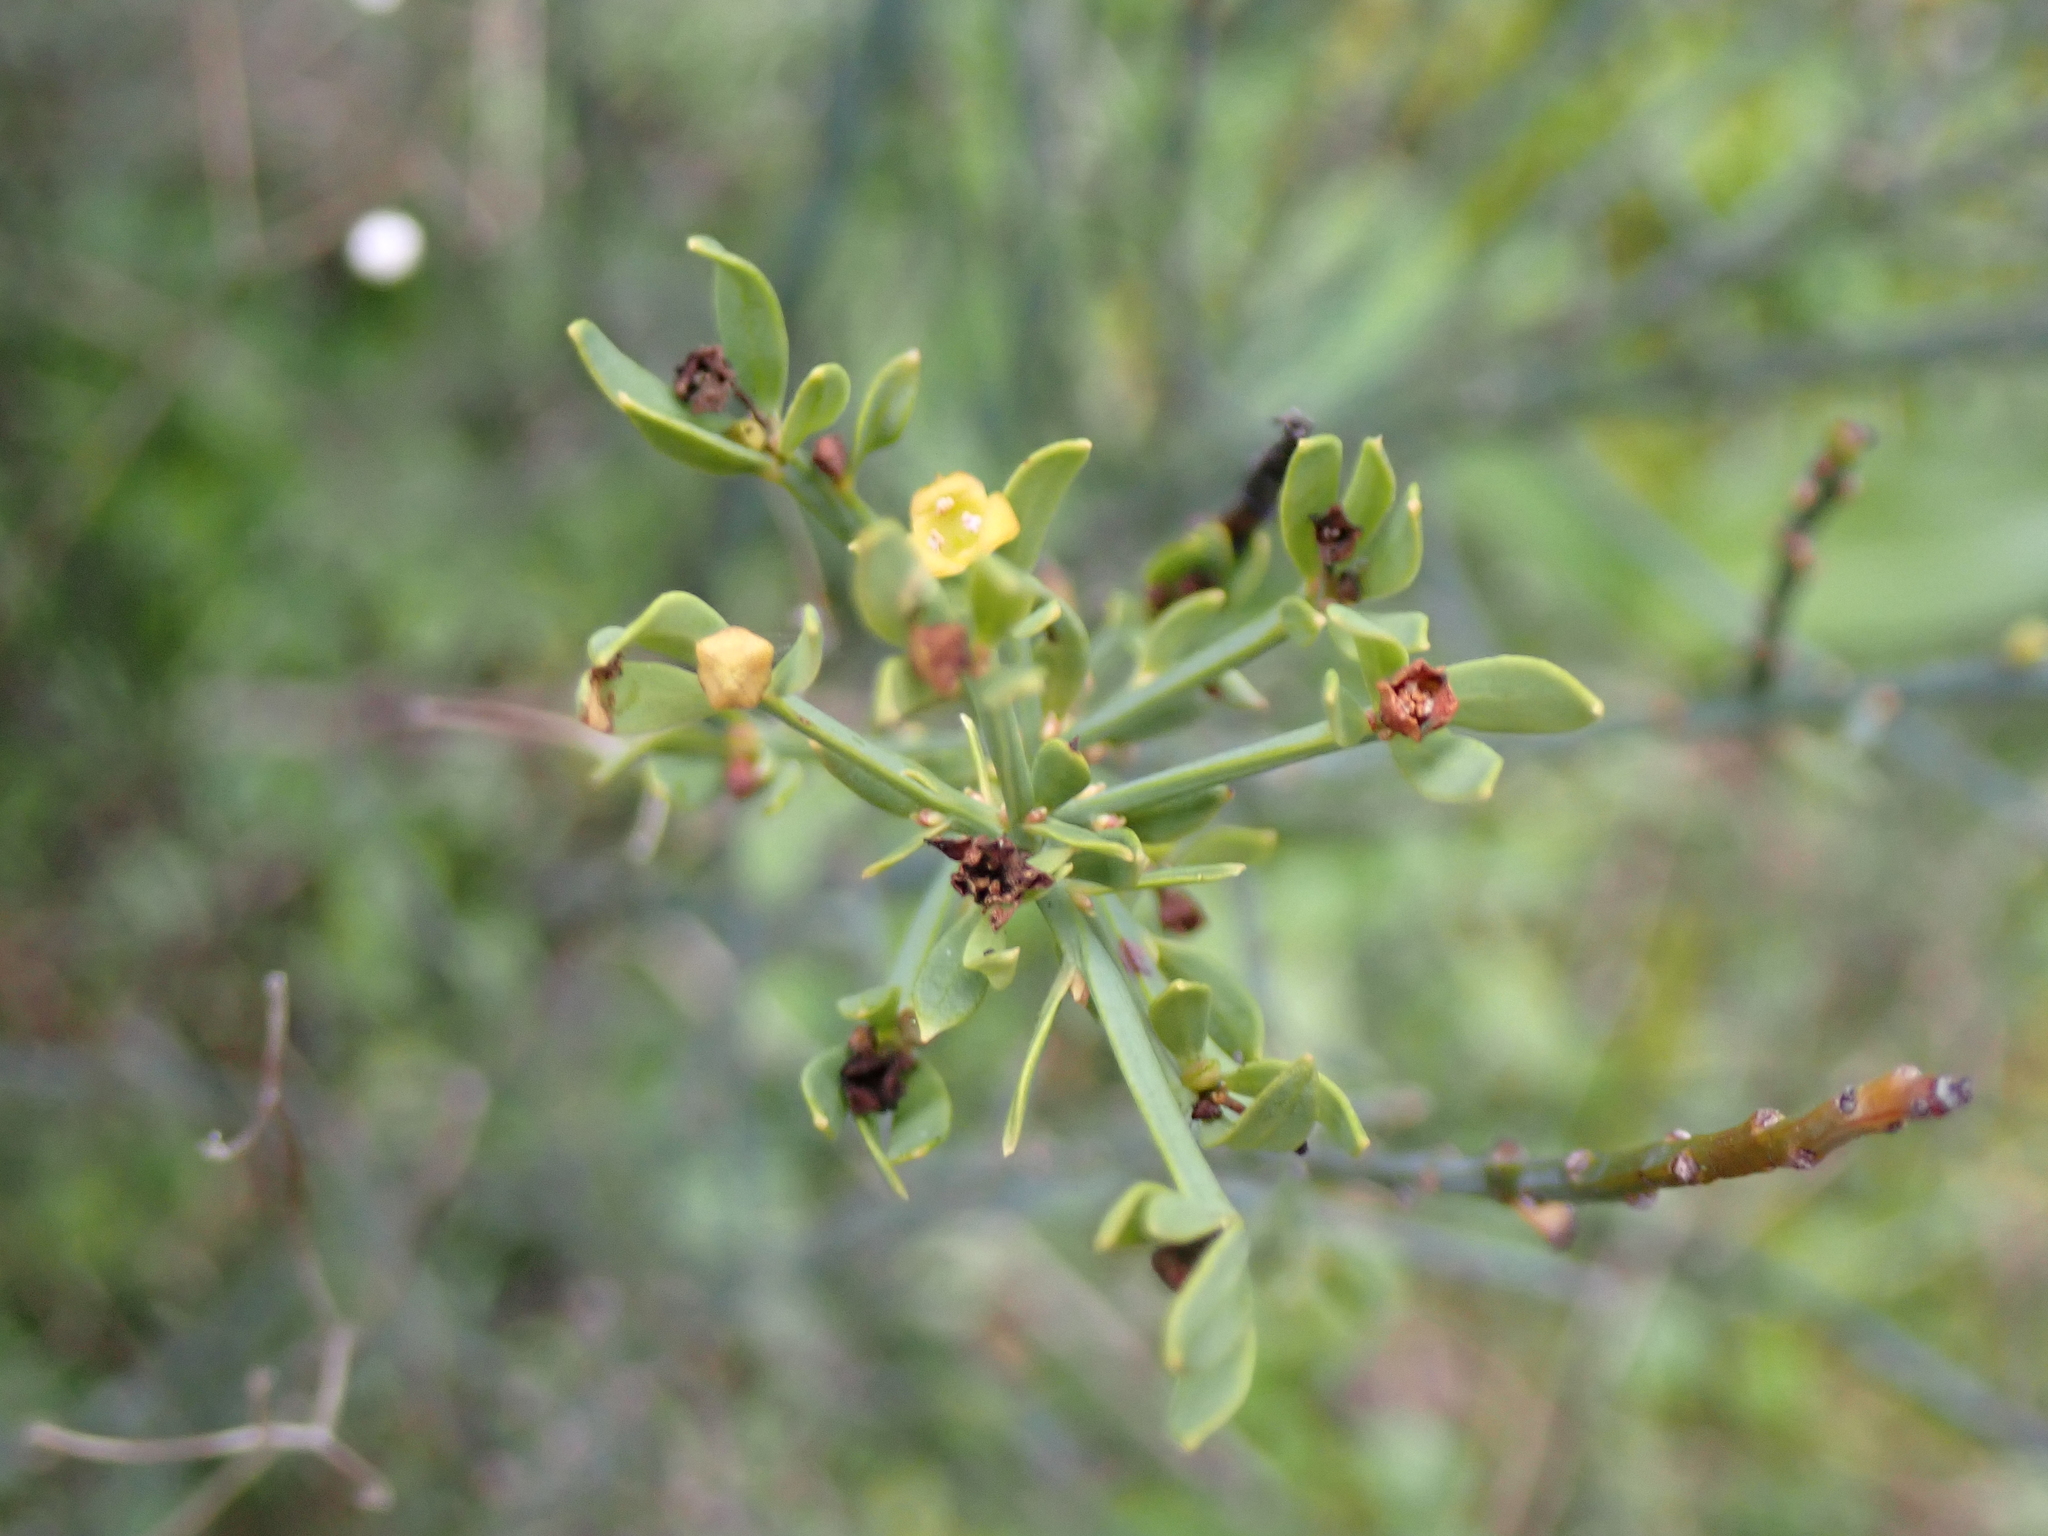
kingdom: Plantae
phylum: Tracheophyta
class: Magnoliopsida
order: Santalales
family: Santalaceae
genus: Osyris
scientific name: Osyris alba
